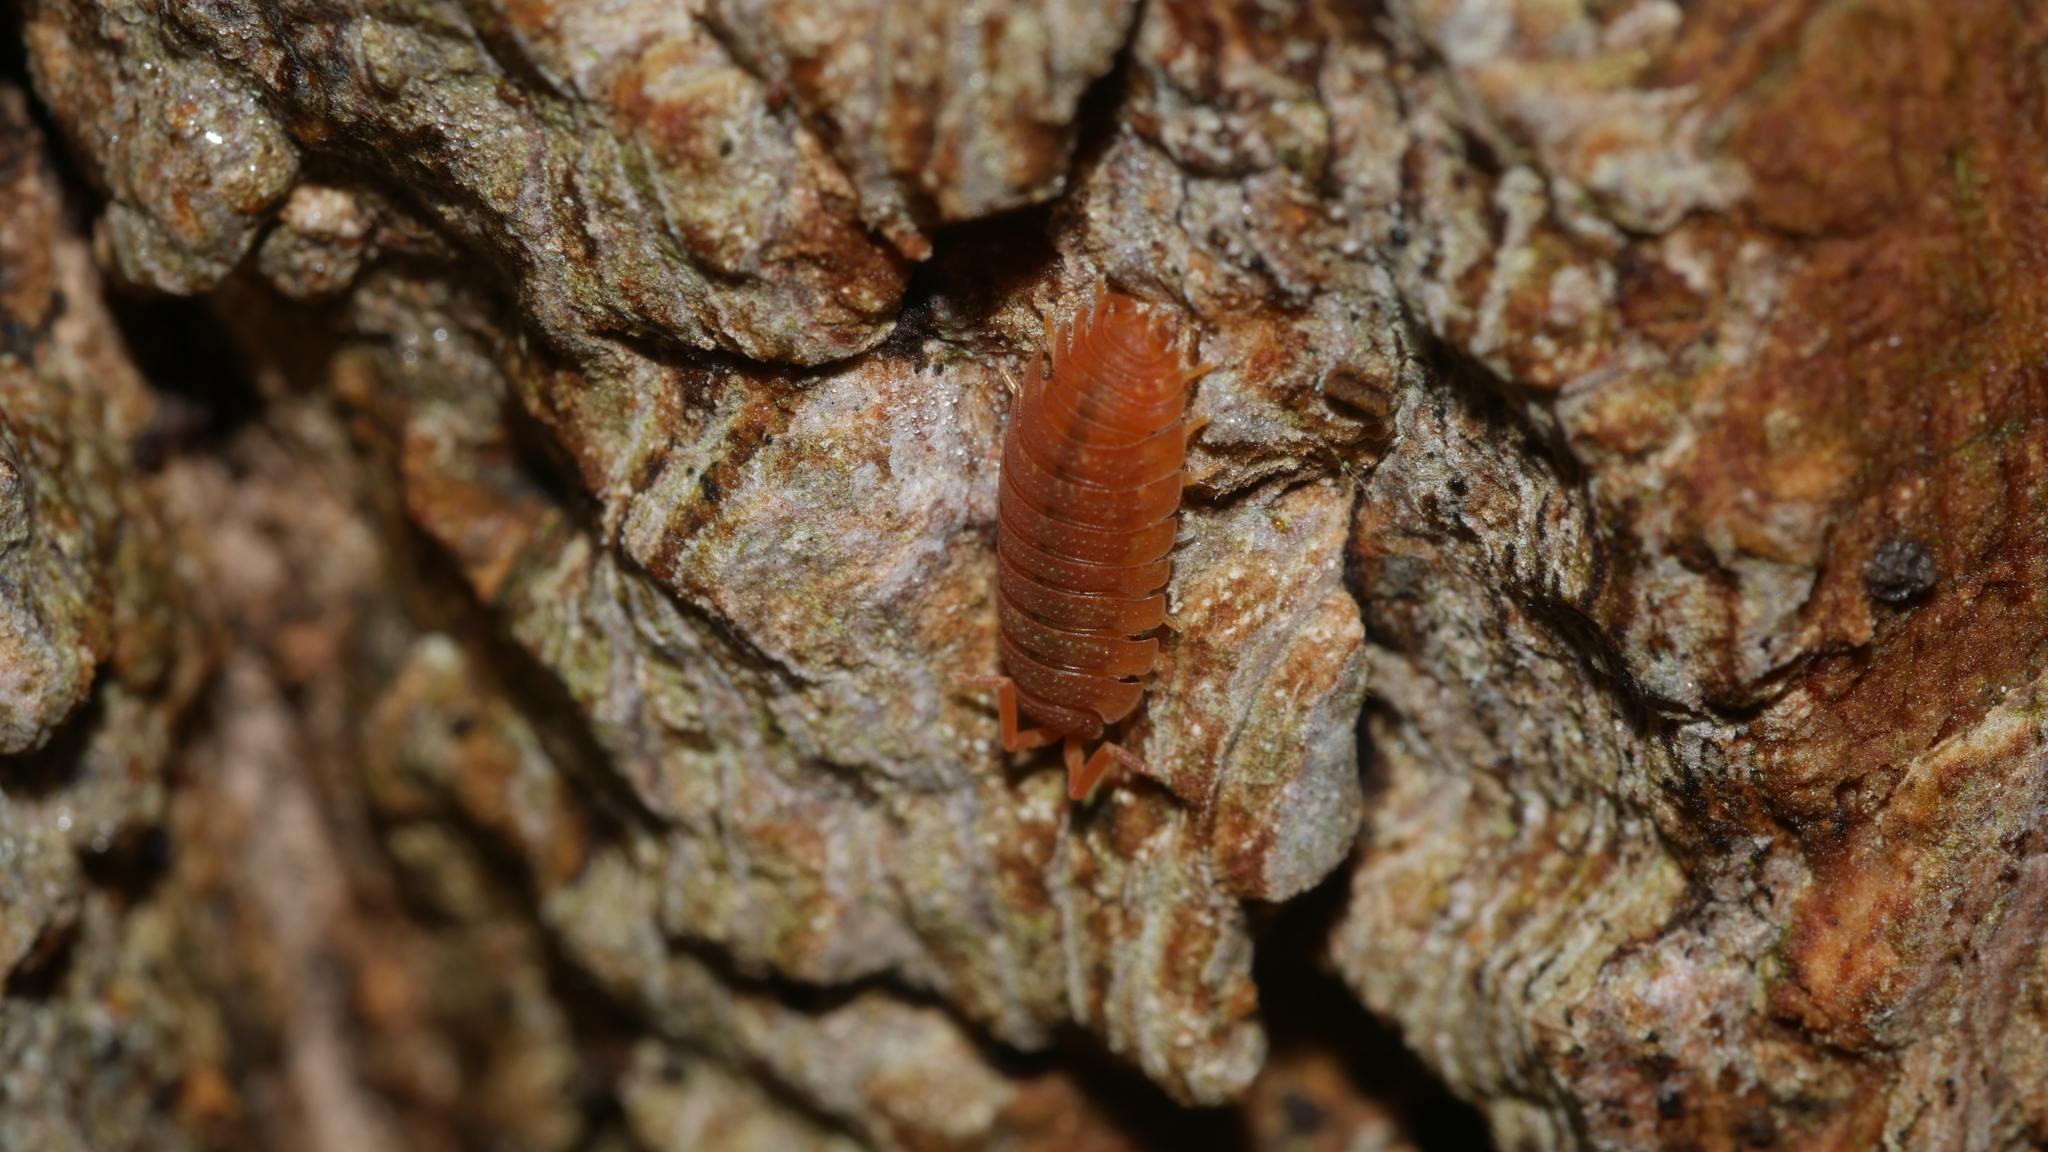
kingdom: Animalia
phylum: Arthropoda
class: Malacostraca
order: Isopoda
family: Porcellionidae
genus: Porcellio
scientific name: Porcellio scaber
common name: Common rough woodlouse
